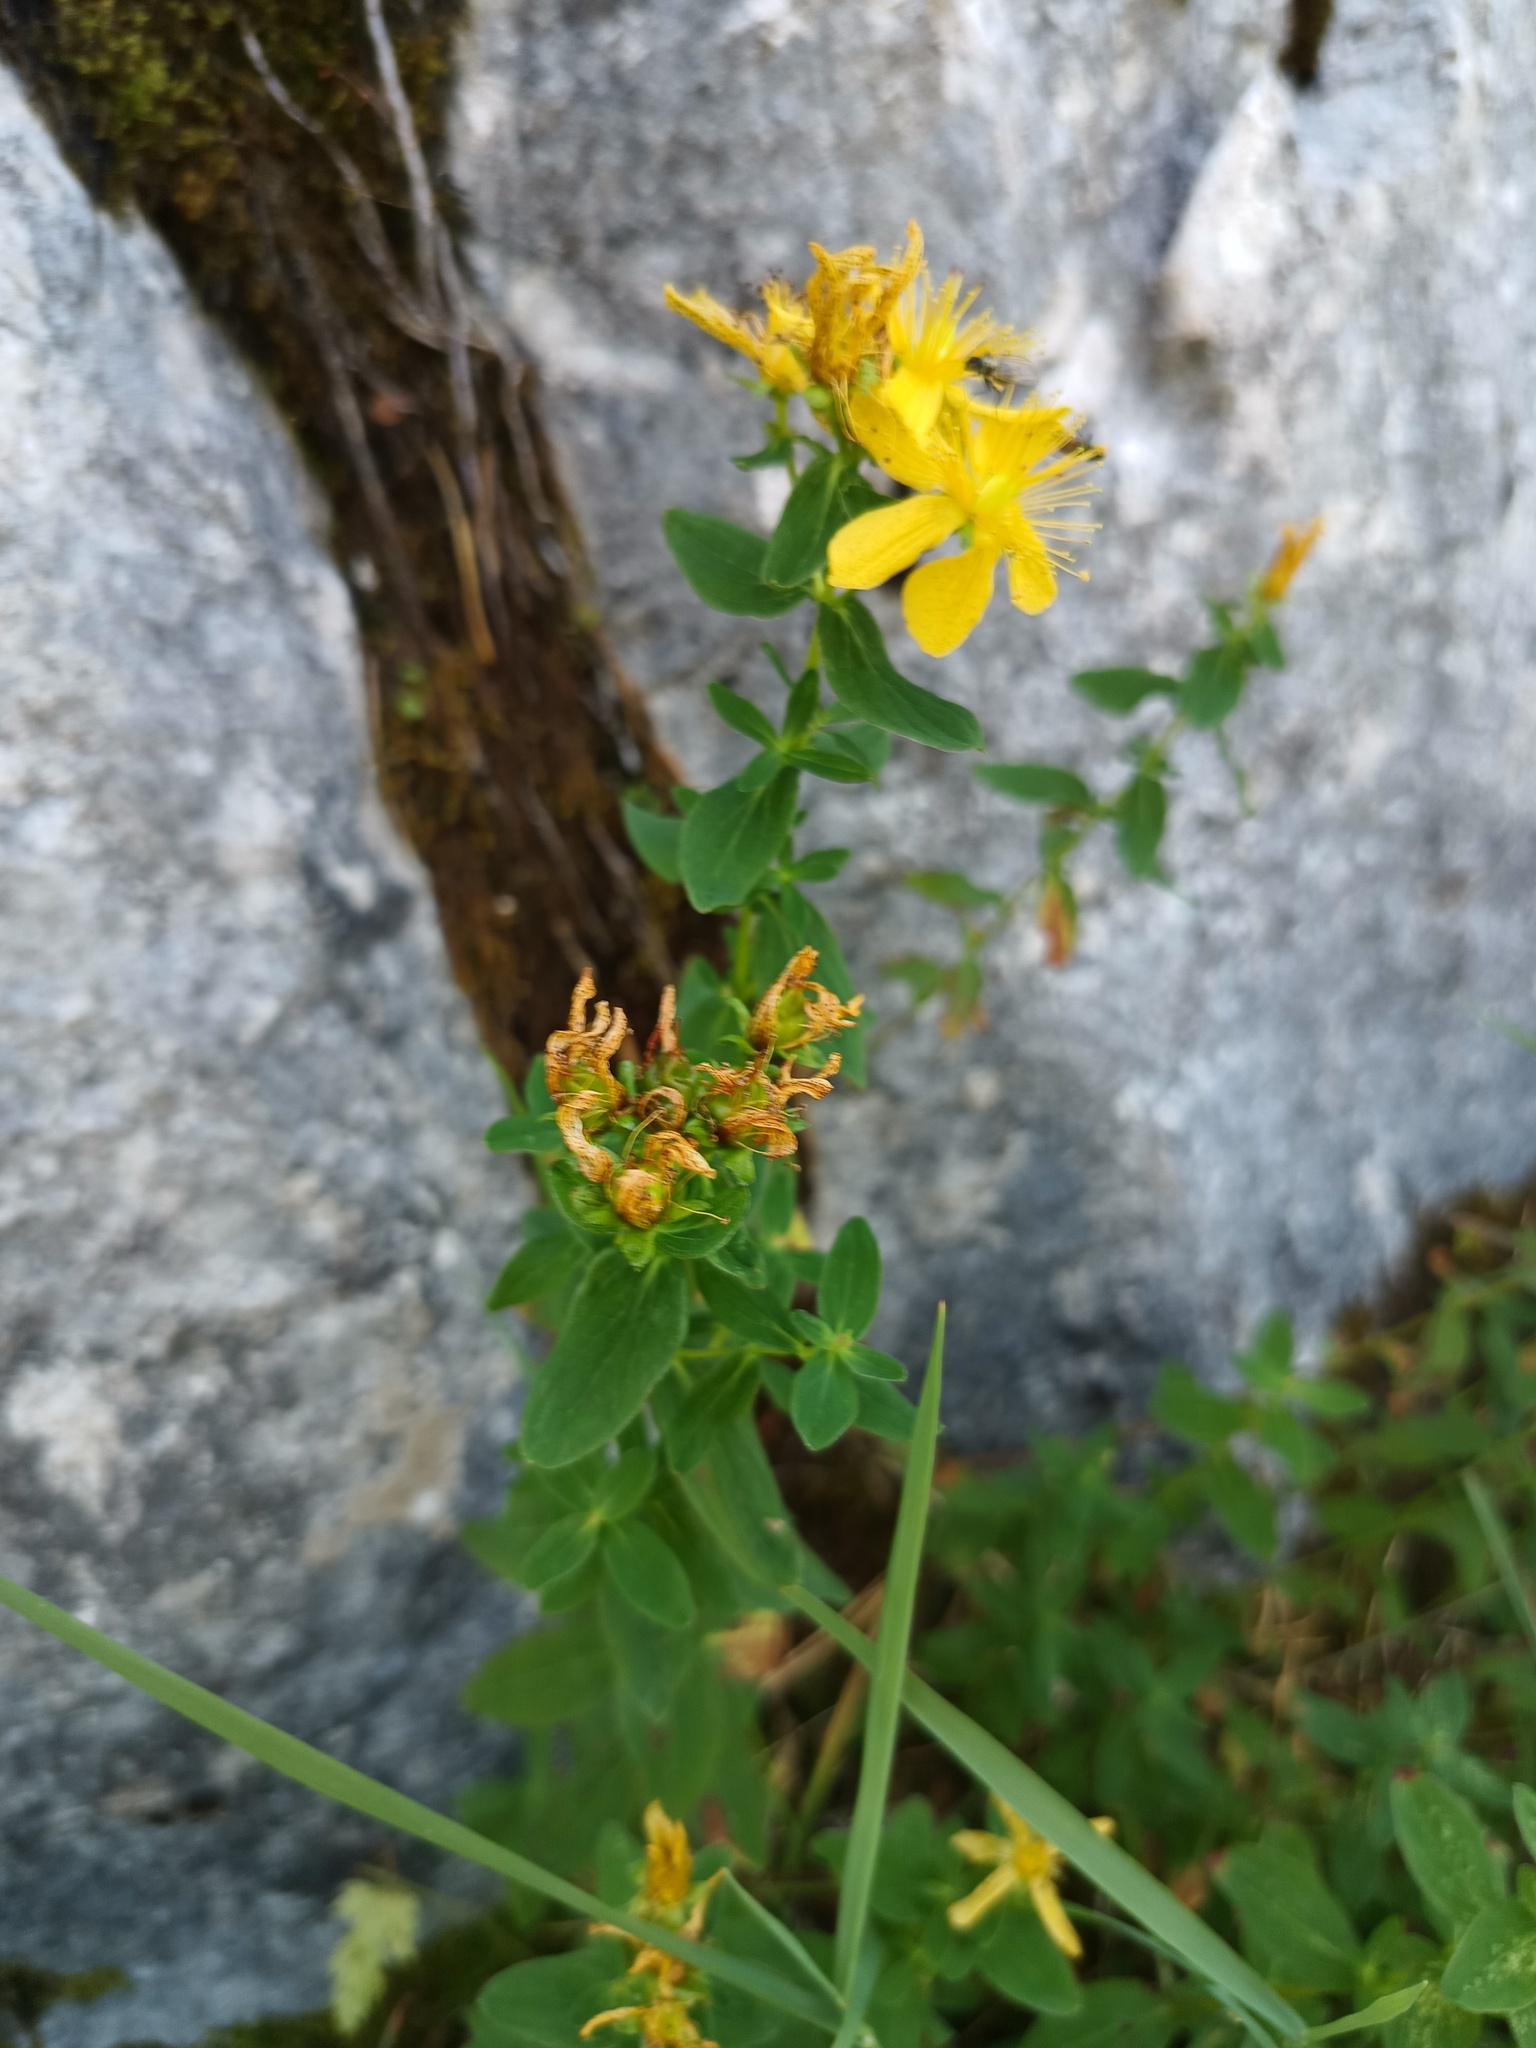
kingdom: Plantae
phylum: Tracheophyta
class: Magnoliopsida
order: Malpighiales
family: Hypericaceae
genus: Hypericum
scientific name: Hypericum maculatum
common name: Imperforate st. john's-wort
